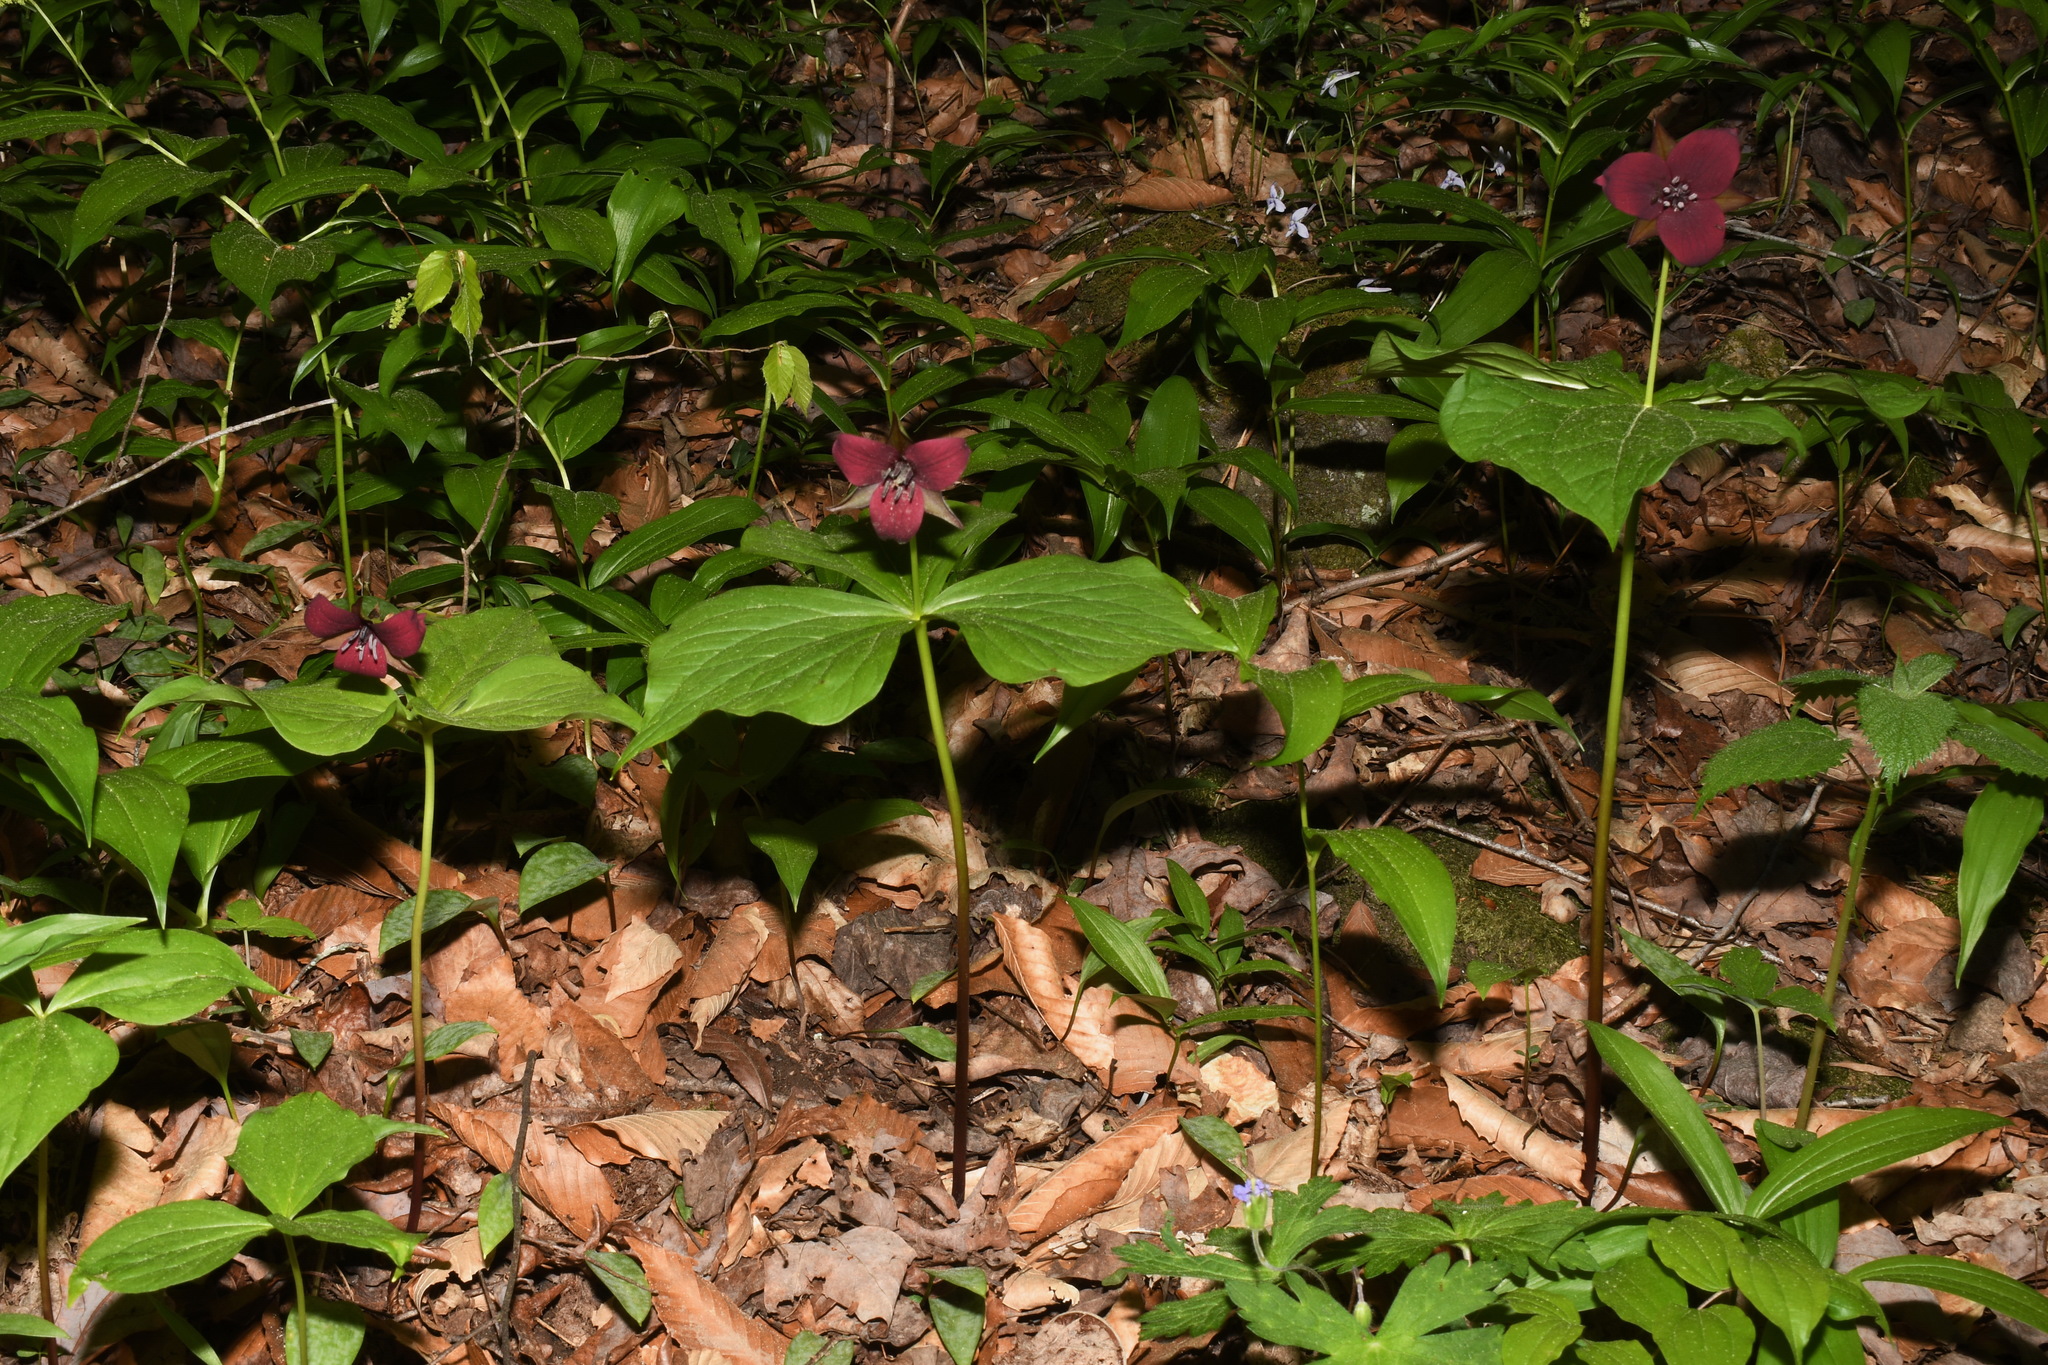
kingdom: Plantae
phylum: Tracheophyta
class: Liliopsida
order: Liliales
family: Melanthiaceae
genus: Trillium
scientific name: Trillium sulcatum
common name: Barksdale trillium
